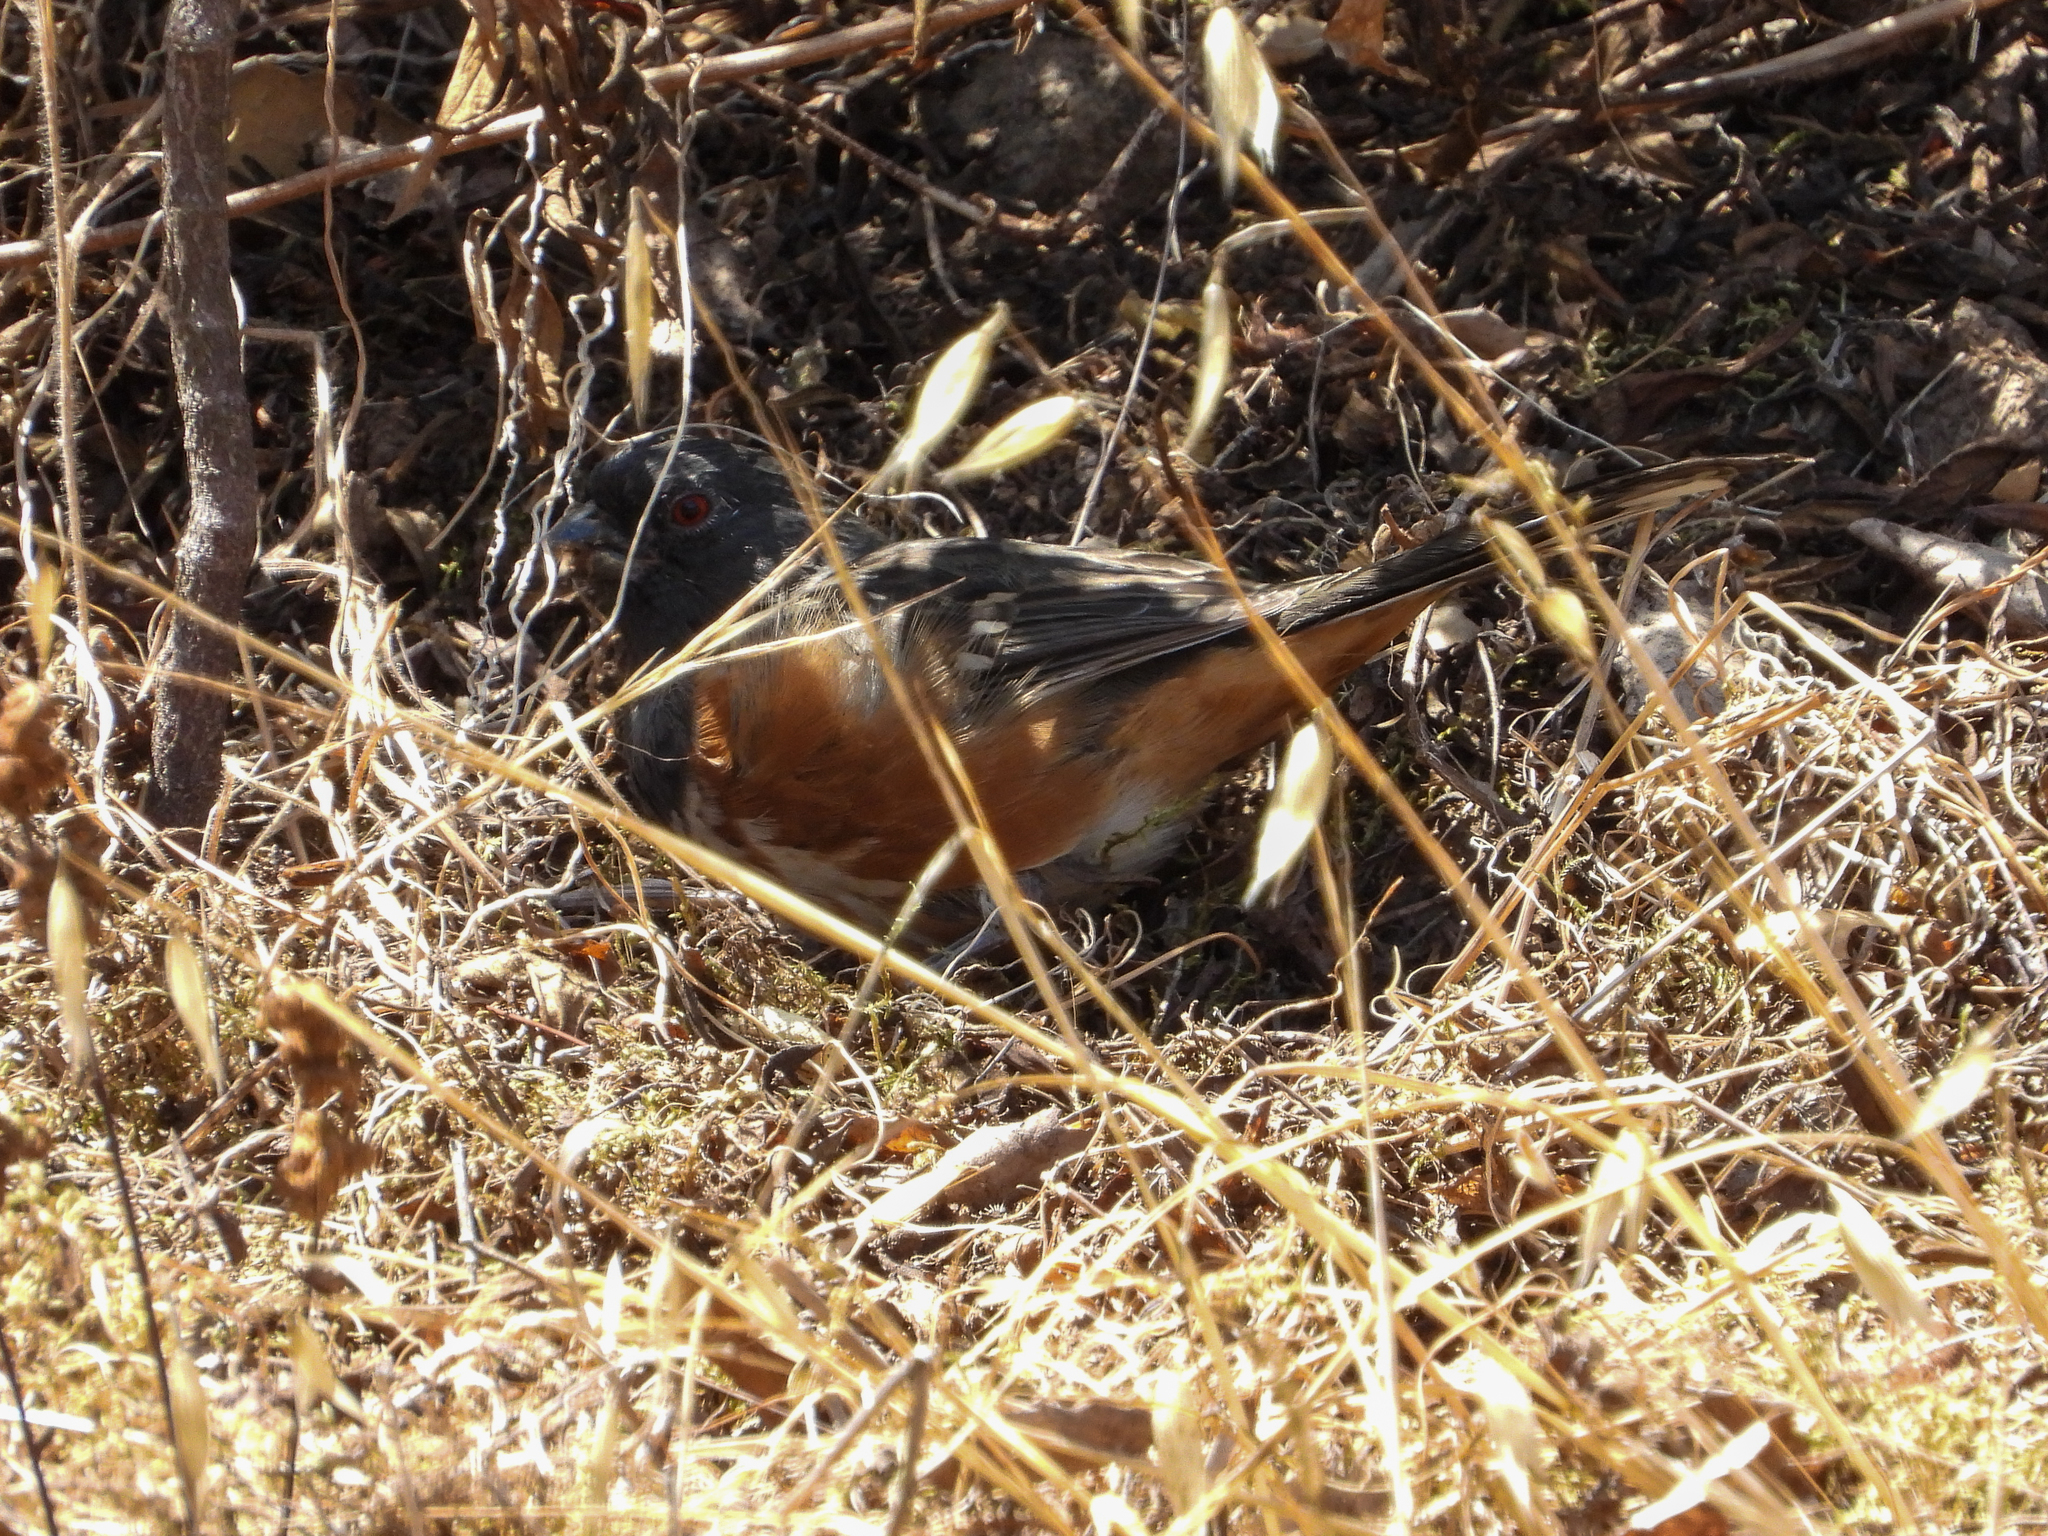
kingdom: Animalia
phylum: Chordata
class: Aves
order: Passeriformes
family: Passerellidae
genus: Pipilo
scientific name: Pipilo maculatus
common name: Spotted towhee
